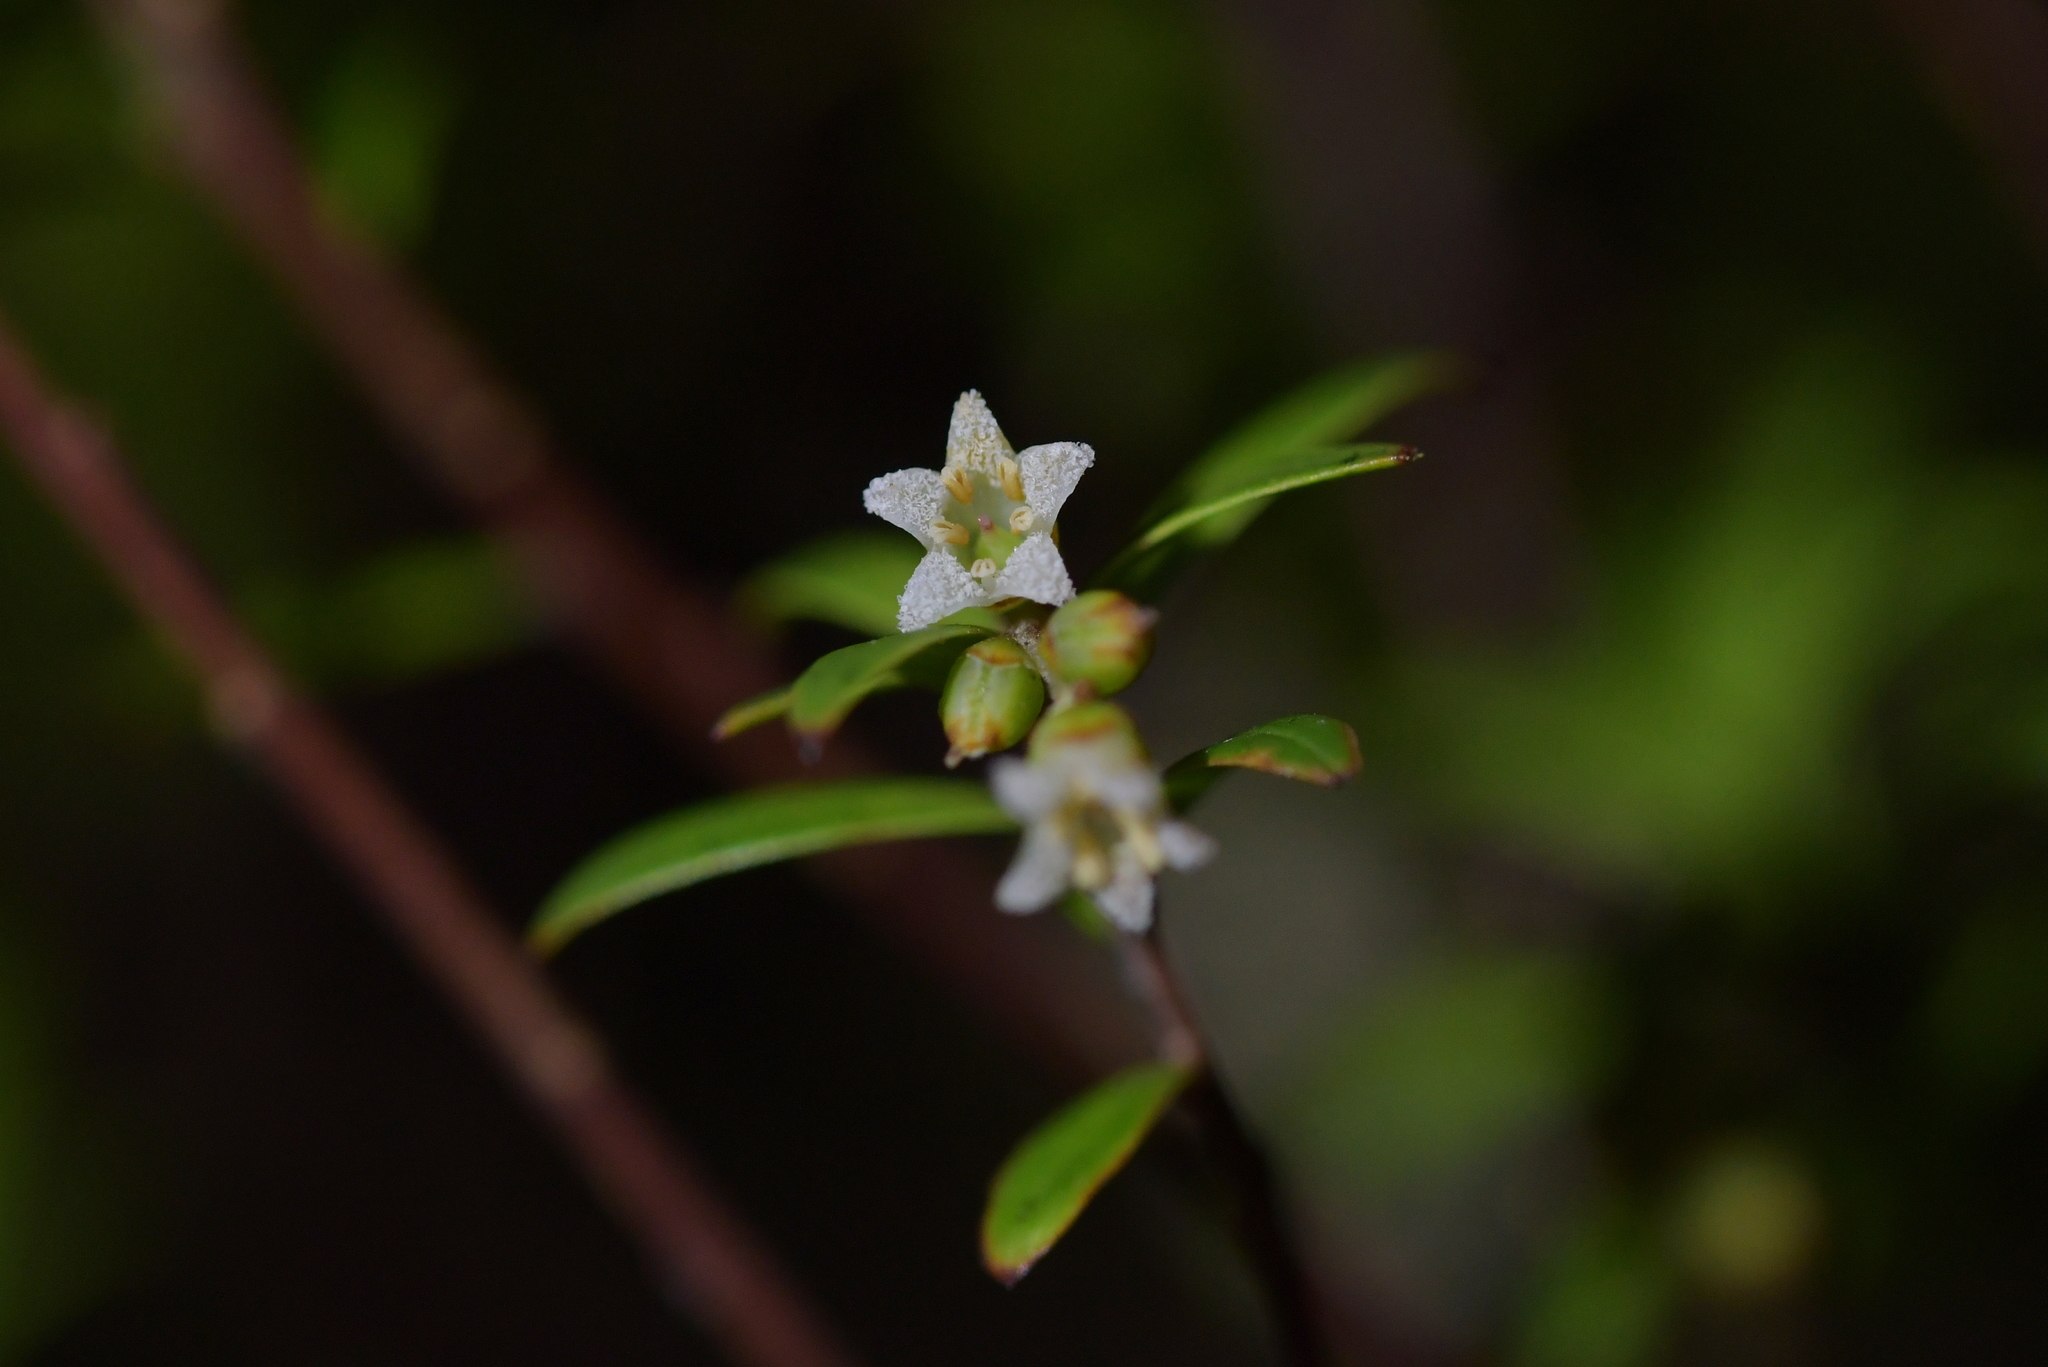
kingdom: Plantae
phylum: Tracheophyta
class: Magnoliopsida
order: Ericales
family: Ericaceae
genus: Leucopogon
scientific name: Leucopogon fasciculatus
